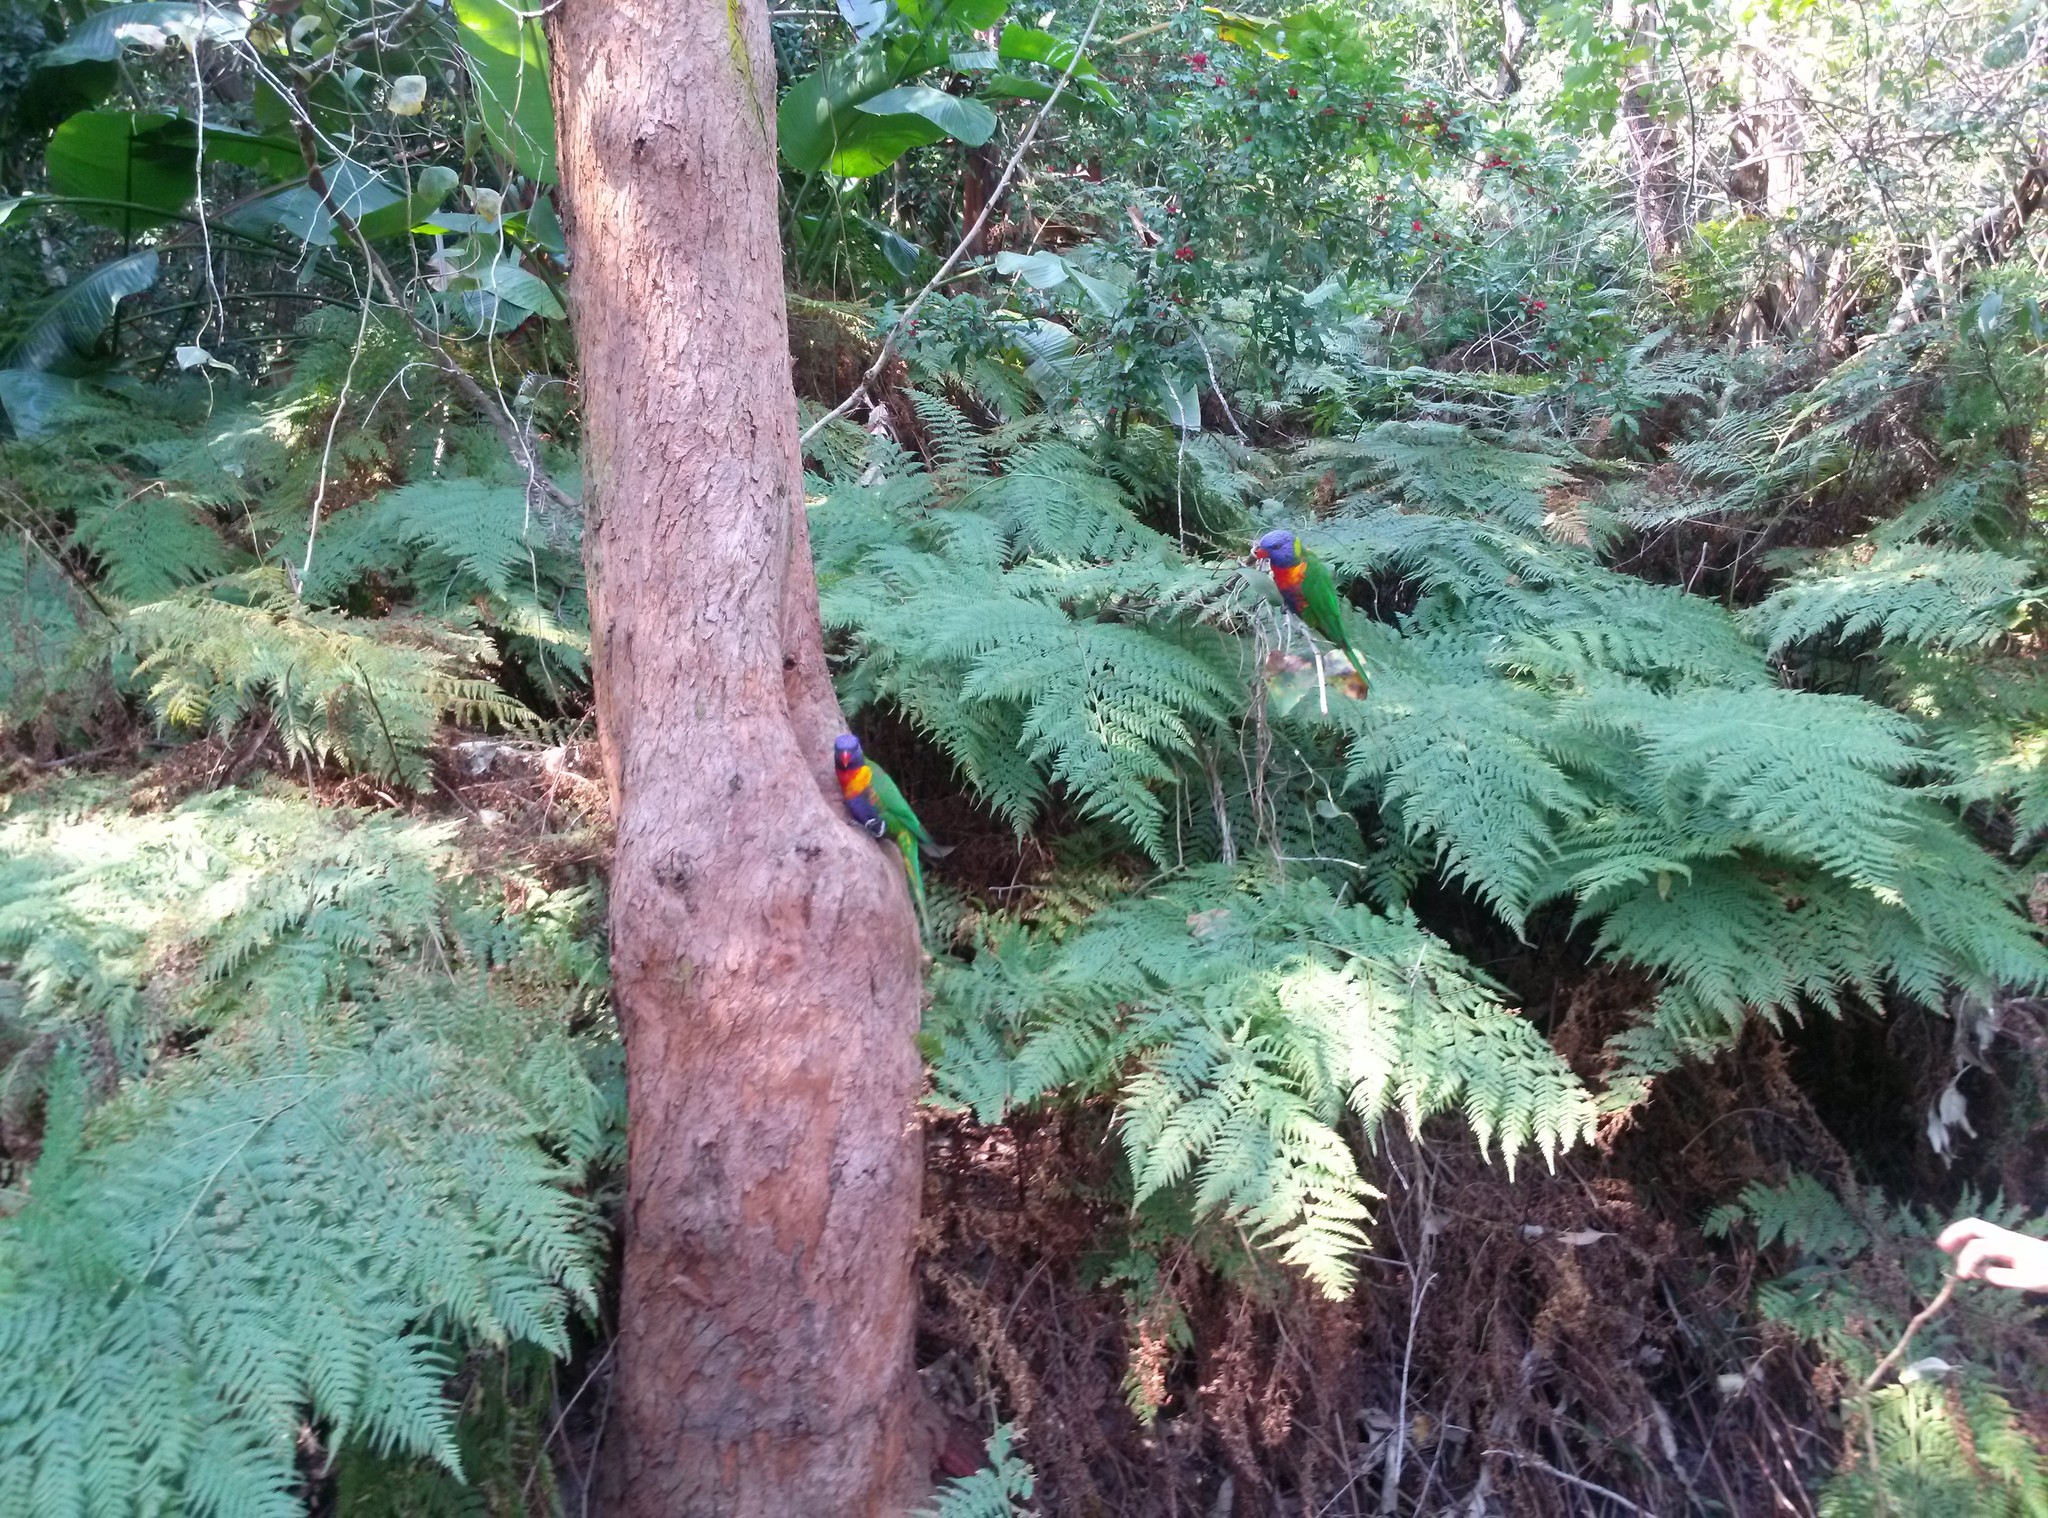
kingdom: Animalia
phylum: Chordata
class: Aves
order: Psittaciformes
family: Psittacidae
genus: Trichoglossus
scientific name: Trichoglossus haematodus
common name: Coconut lorikeet
